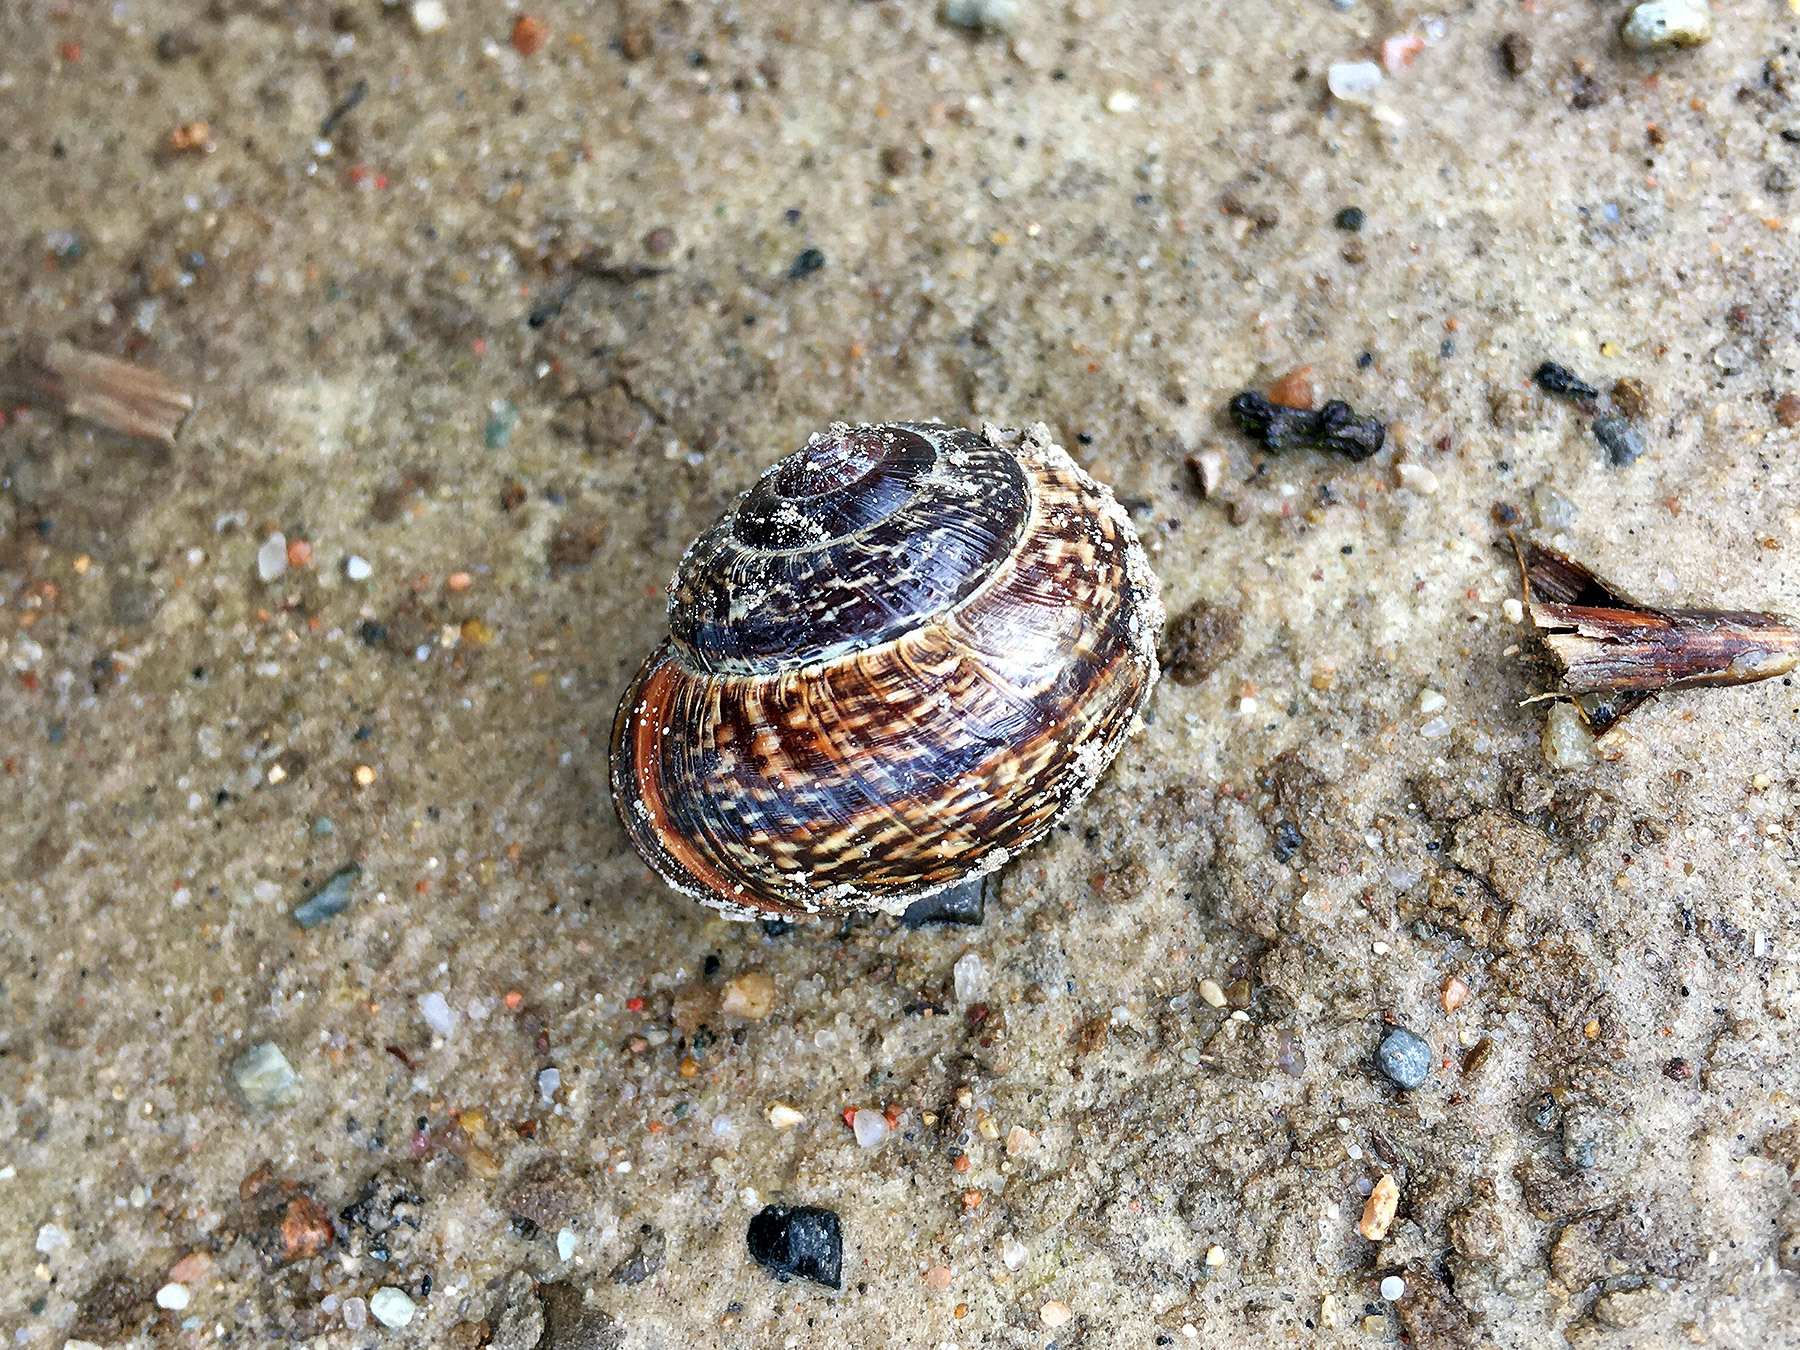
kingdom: Animalia
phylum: Mollusca
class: Gastropoda
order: Stylommatophora
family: Helicidae
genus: Arianta
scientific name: Arianta arbustorum
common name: Copse snail
